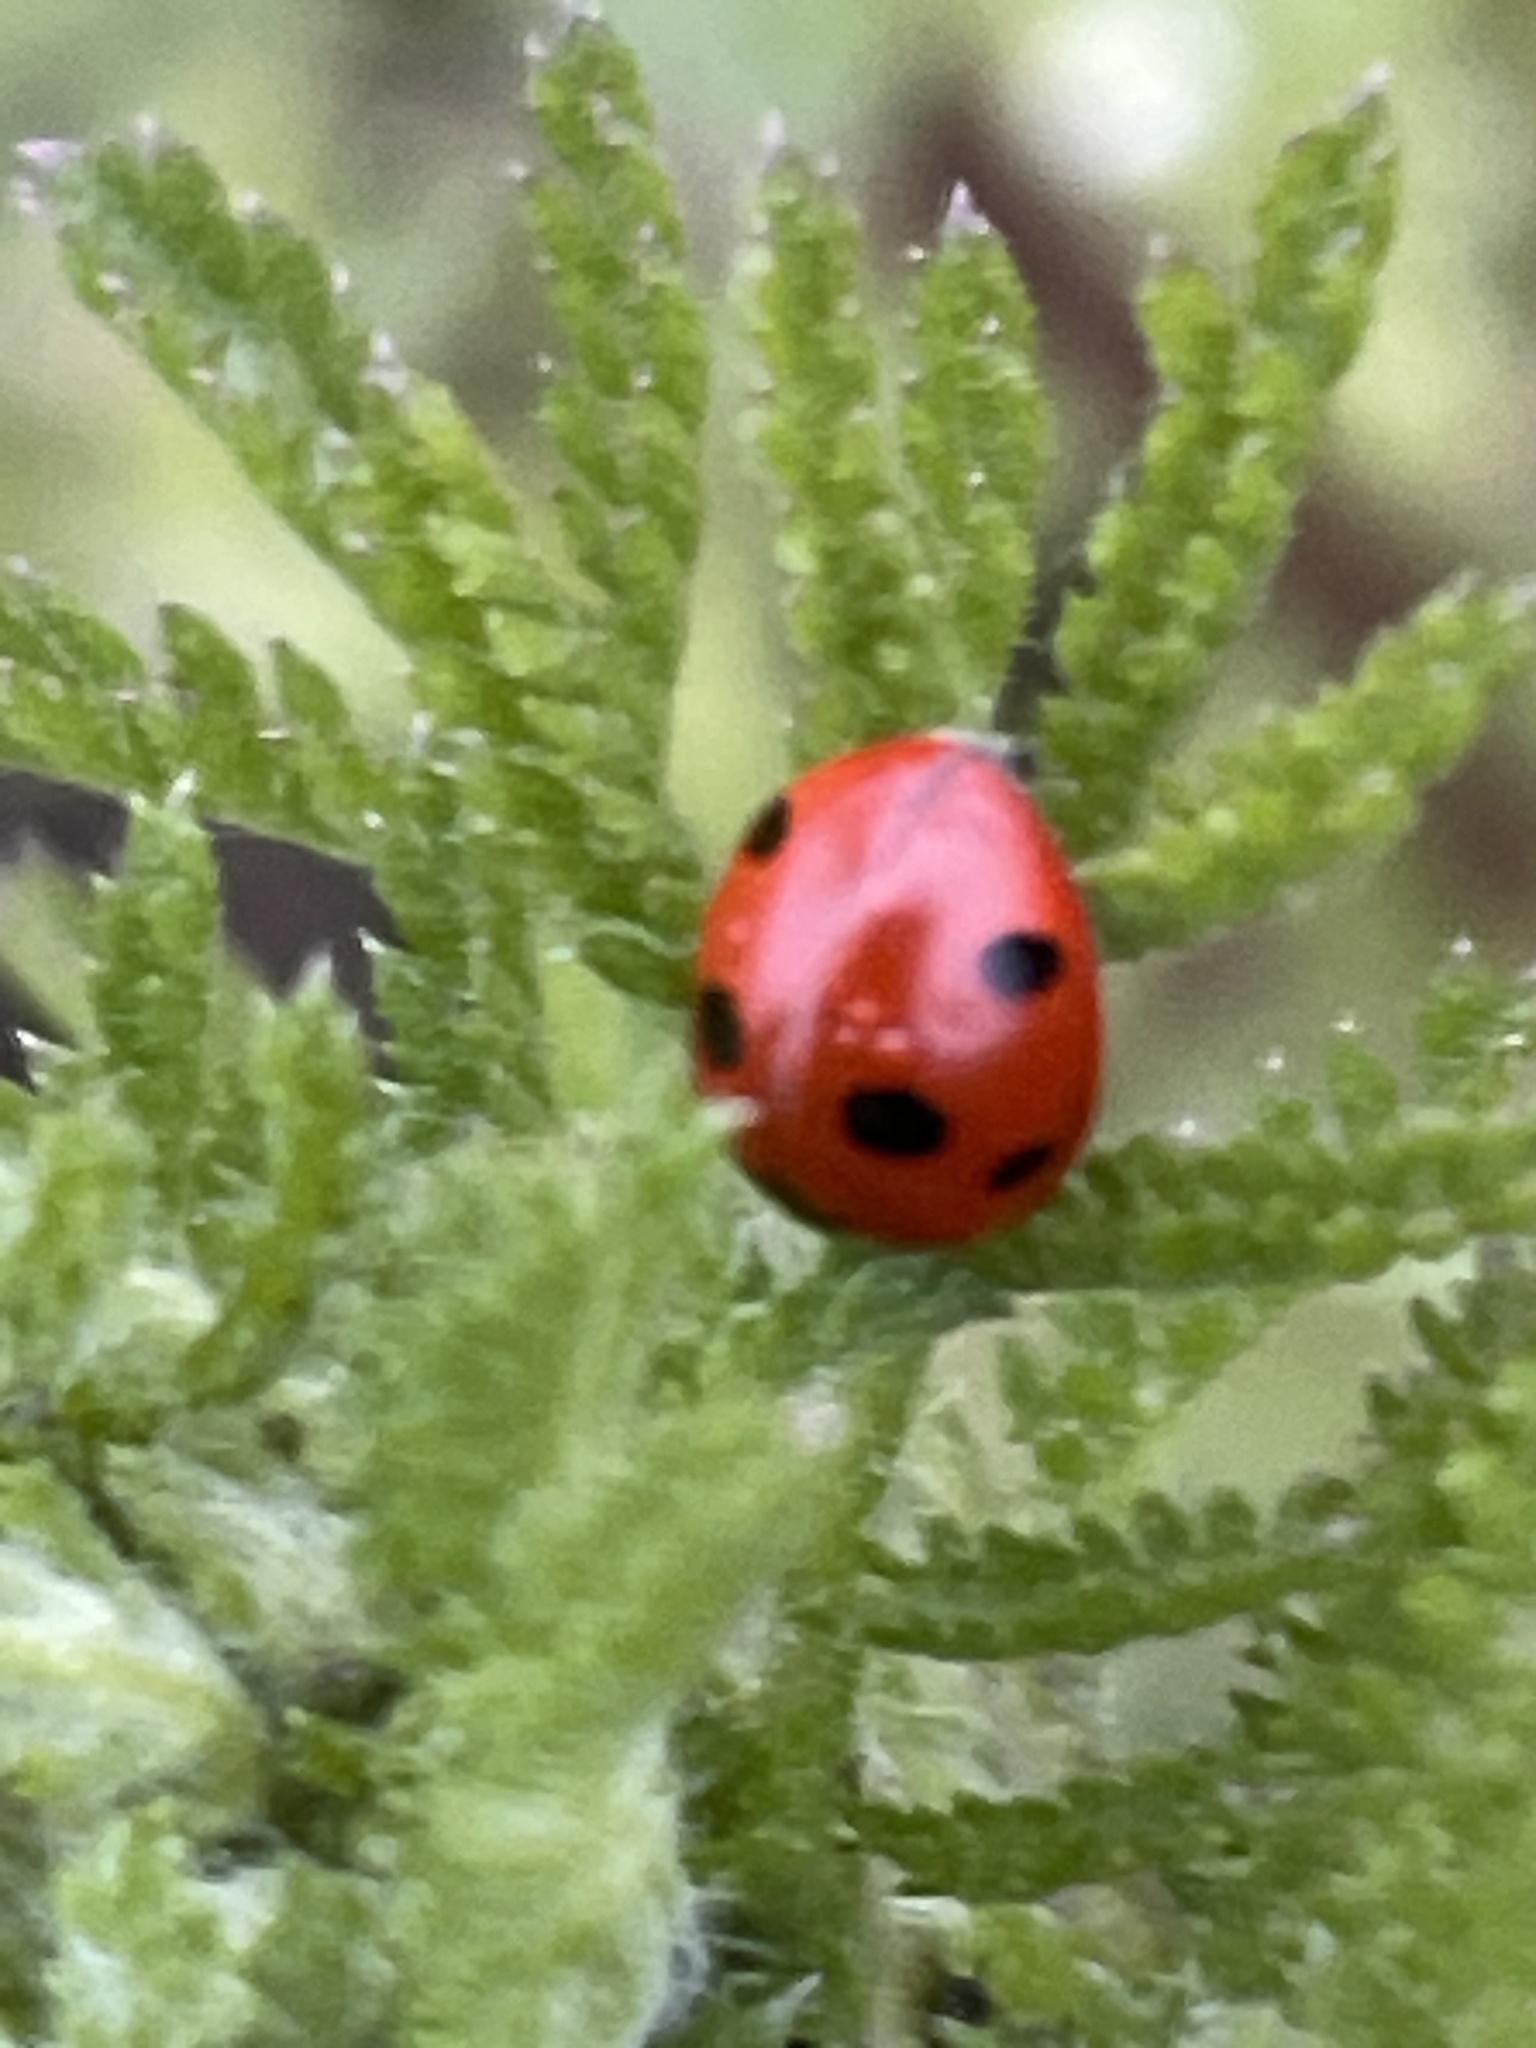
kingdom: Animalia
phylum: Arthropoda
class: Insecta
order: Coleoptera
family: Coccinellidae
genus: Coccinella
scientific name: Coccinella septempunctata
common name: Sevenspotted lady beetle
